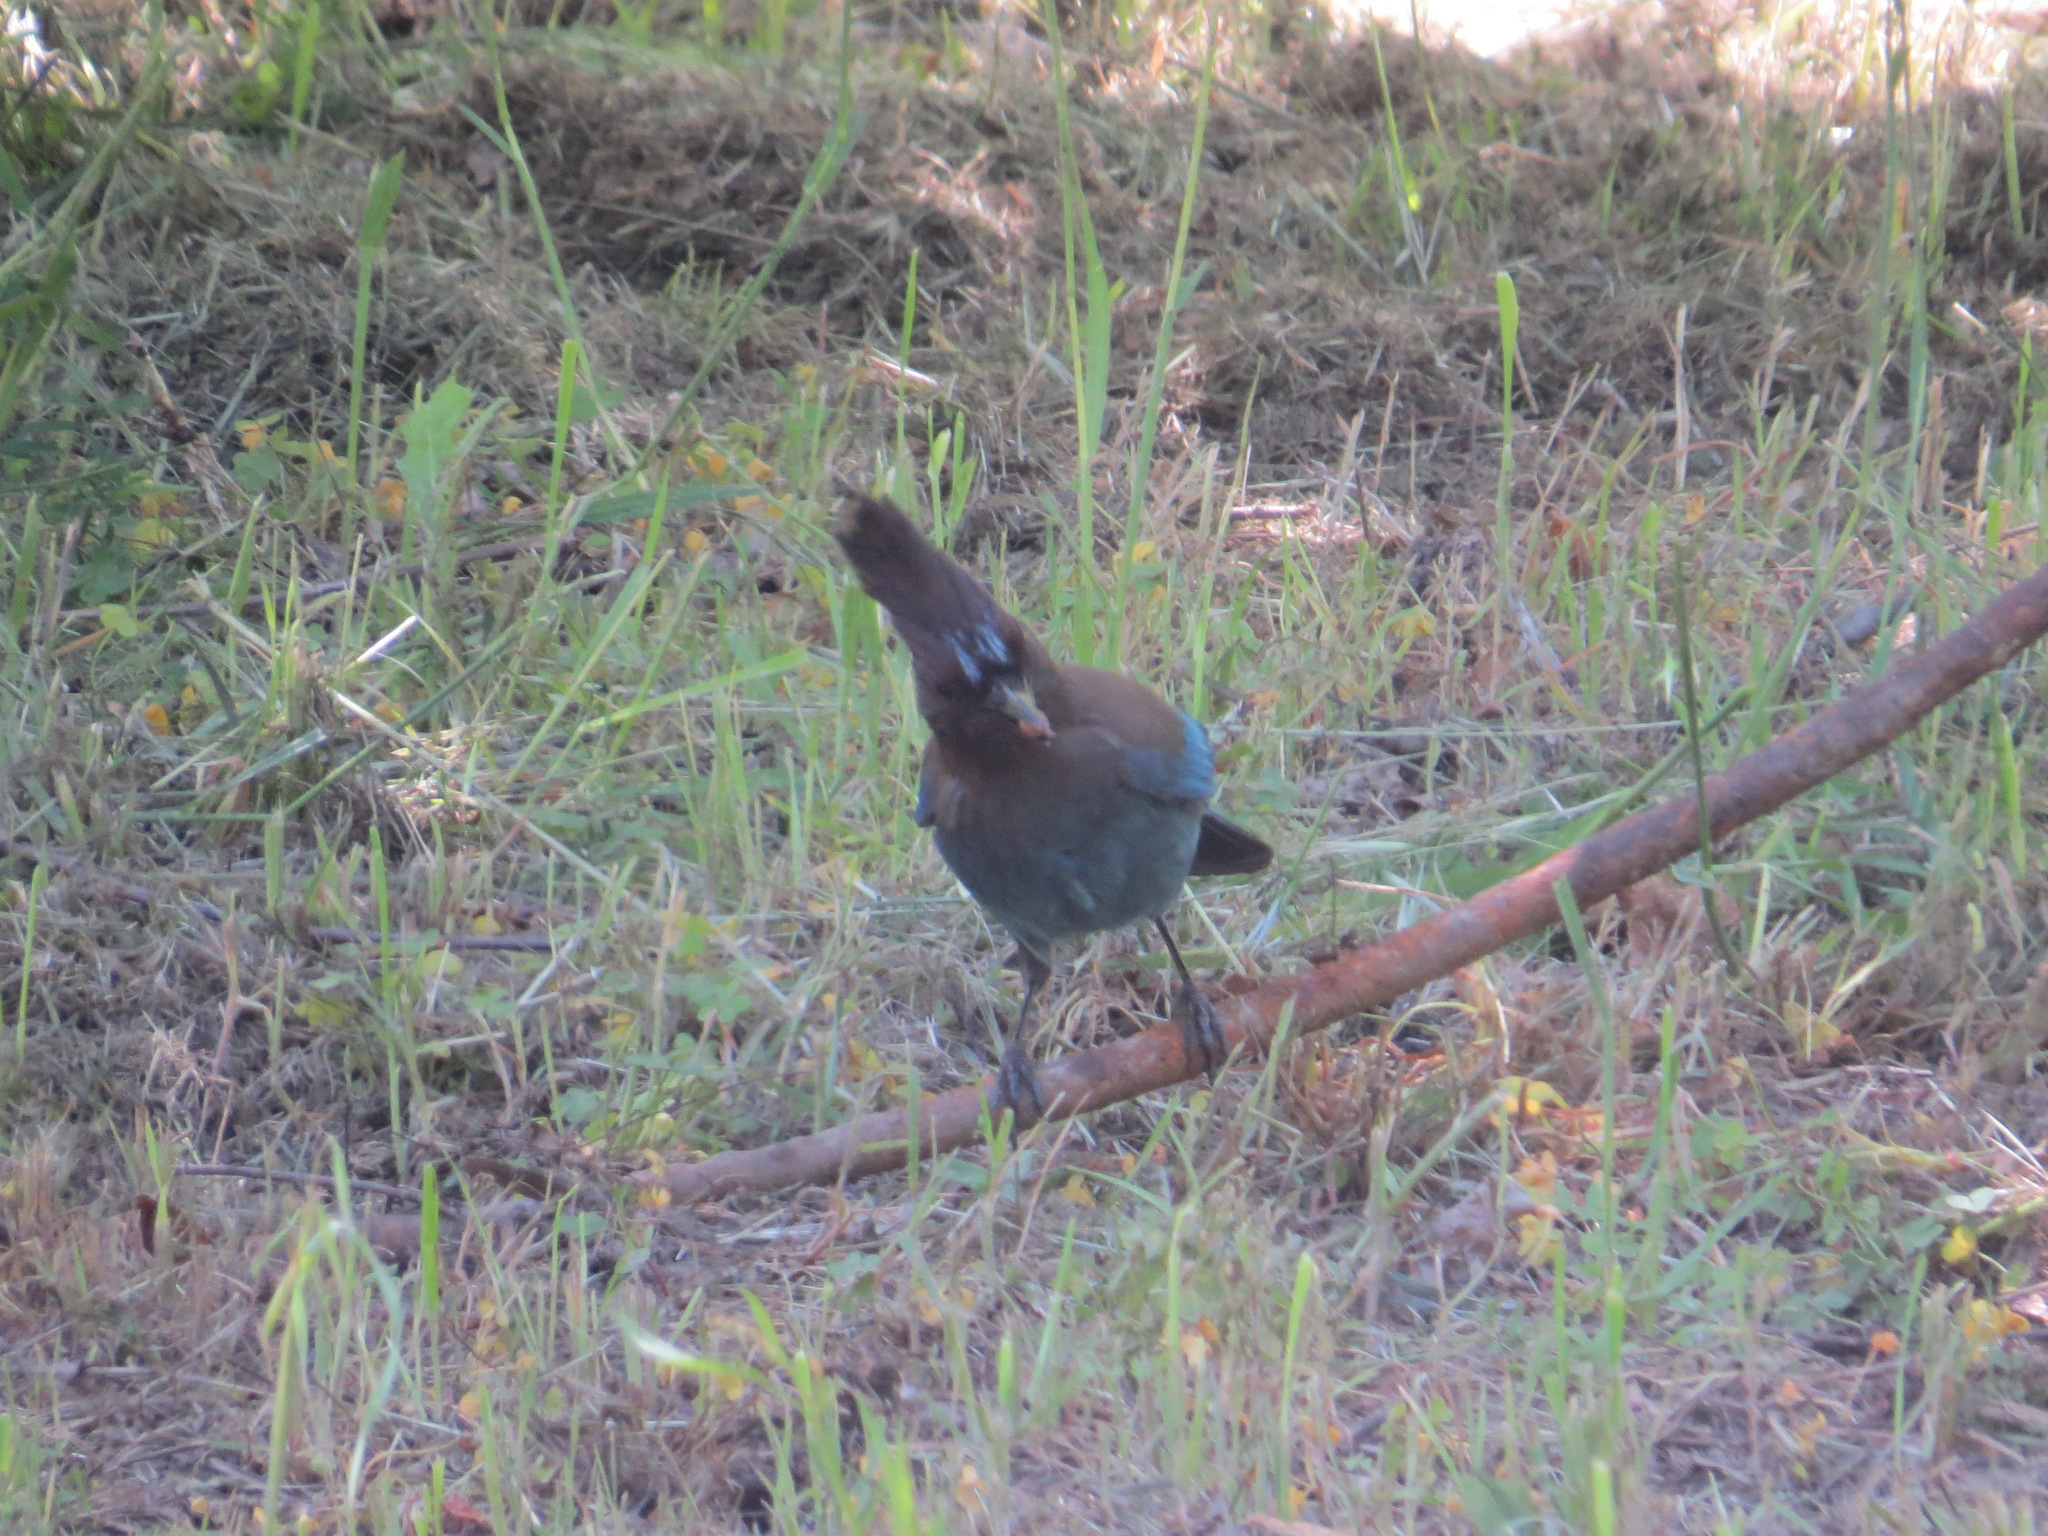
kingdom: Animalia
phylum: Chordata
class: Aves
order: Passeriformes
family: Corvidae
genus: Cyanocitta
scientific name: Cyanocitta stelleri
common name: Steller's jay
